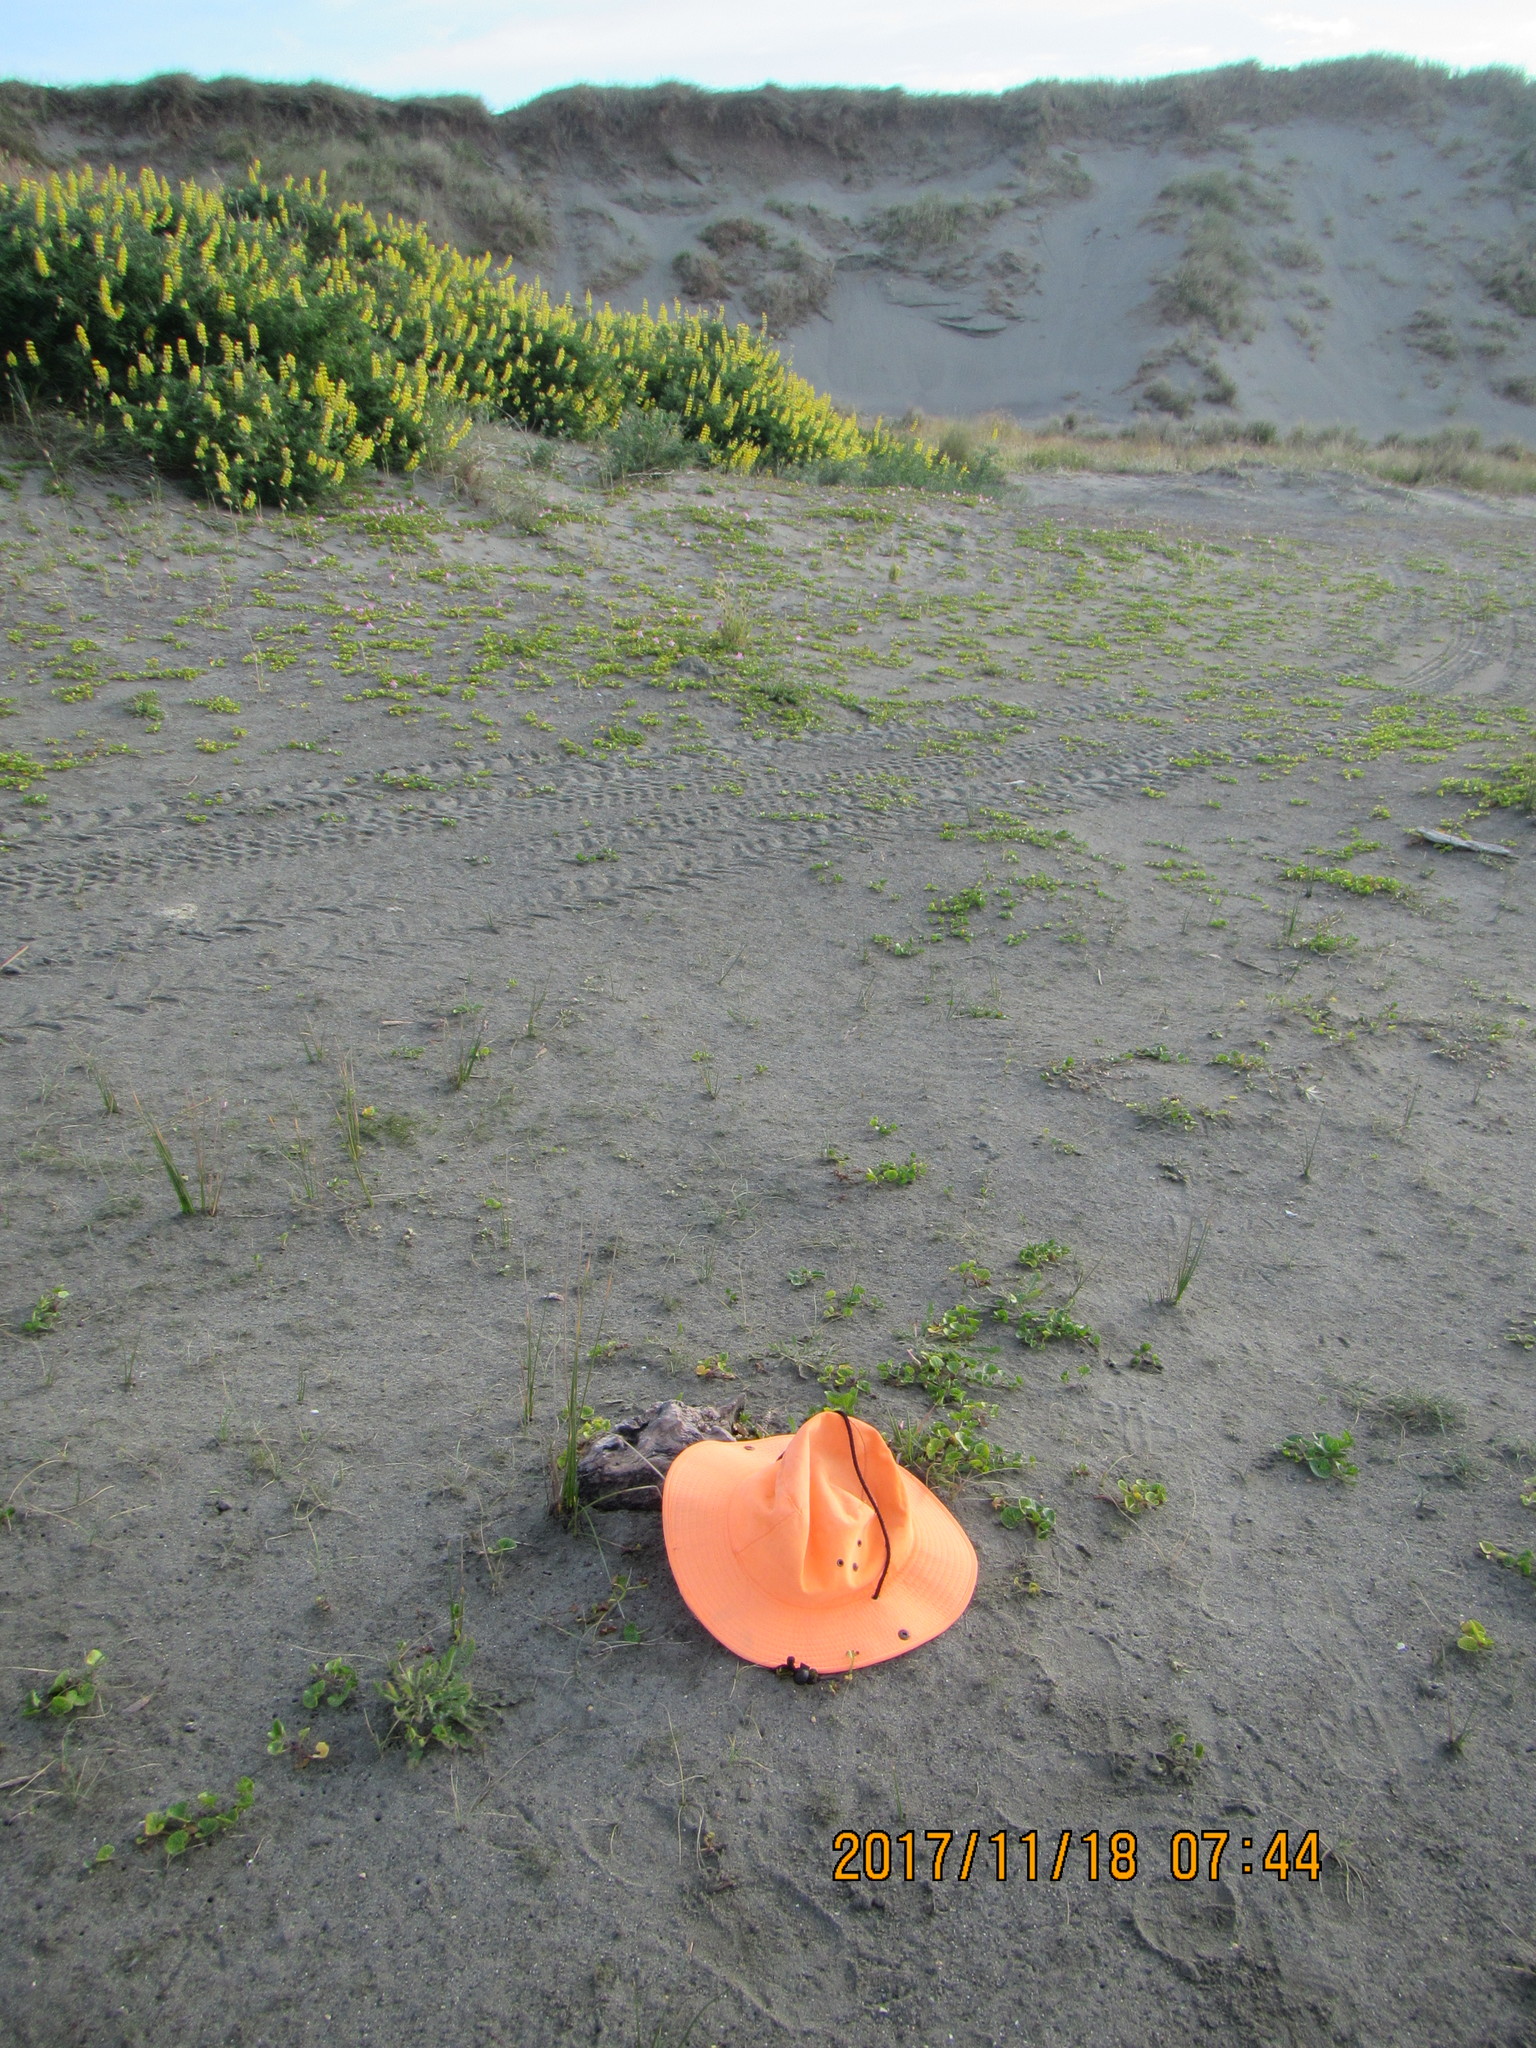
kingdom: Animalia
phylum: Arthropoda
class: Malacostraca
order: Isopoda
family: Porcellionidae
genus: Porcellio
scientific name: Porcellio scaber
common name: Common rough woodlouse
